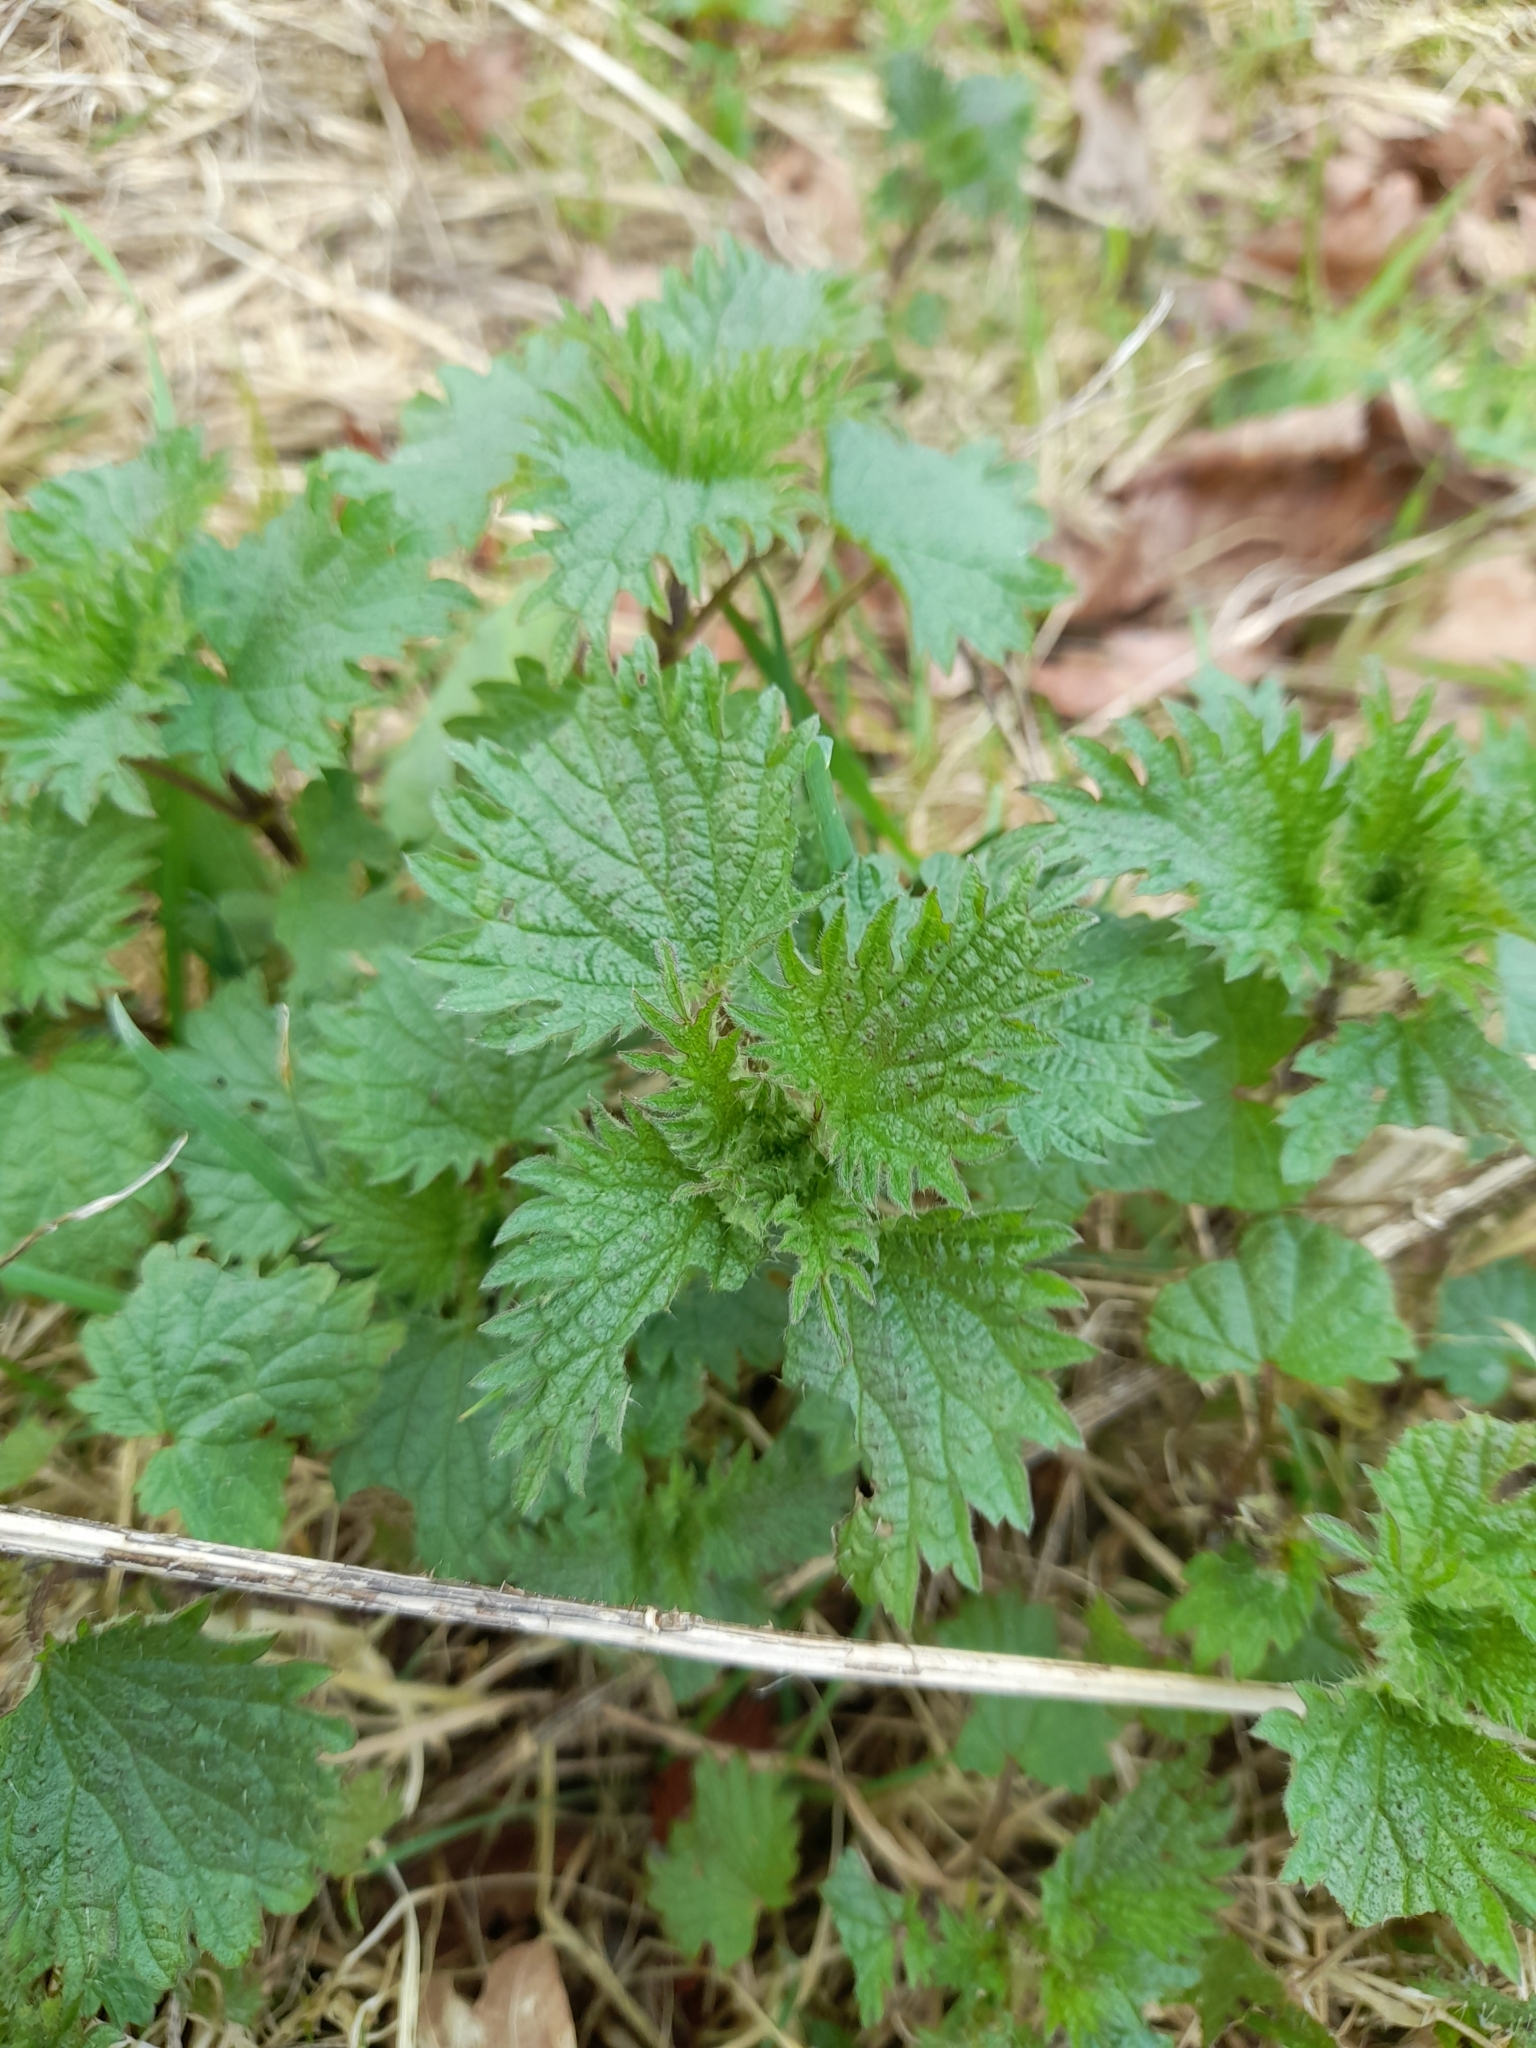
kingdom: Plantae
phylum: Tracheophyta
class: Magnoliopsida
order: Rosales
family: Urticaceae
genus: Urtica
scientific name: Urtica dioica
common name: Common nettle
